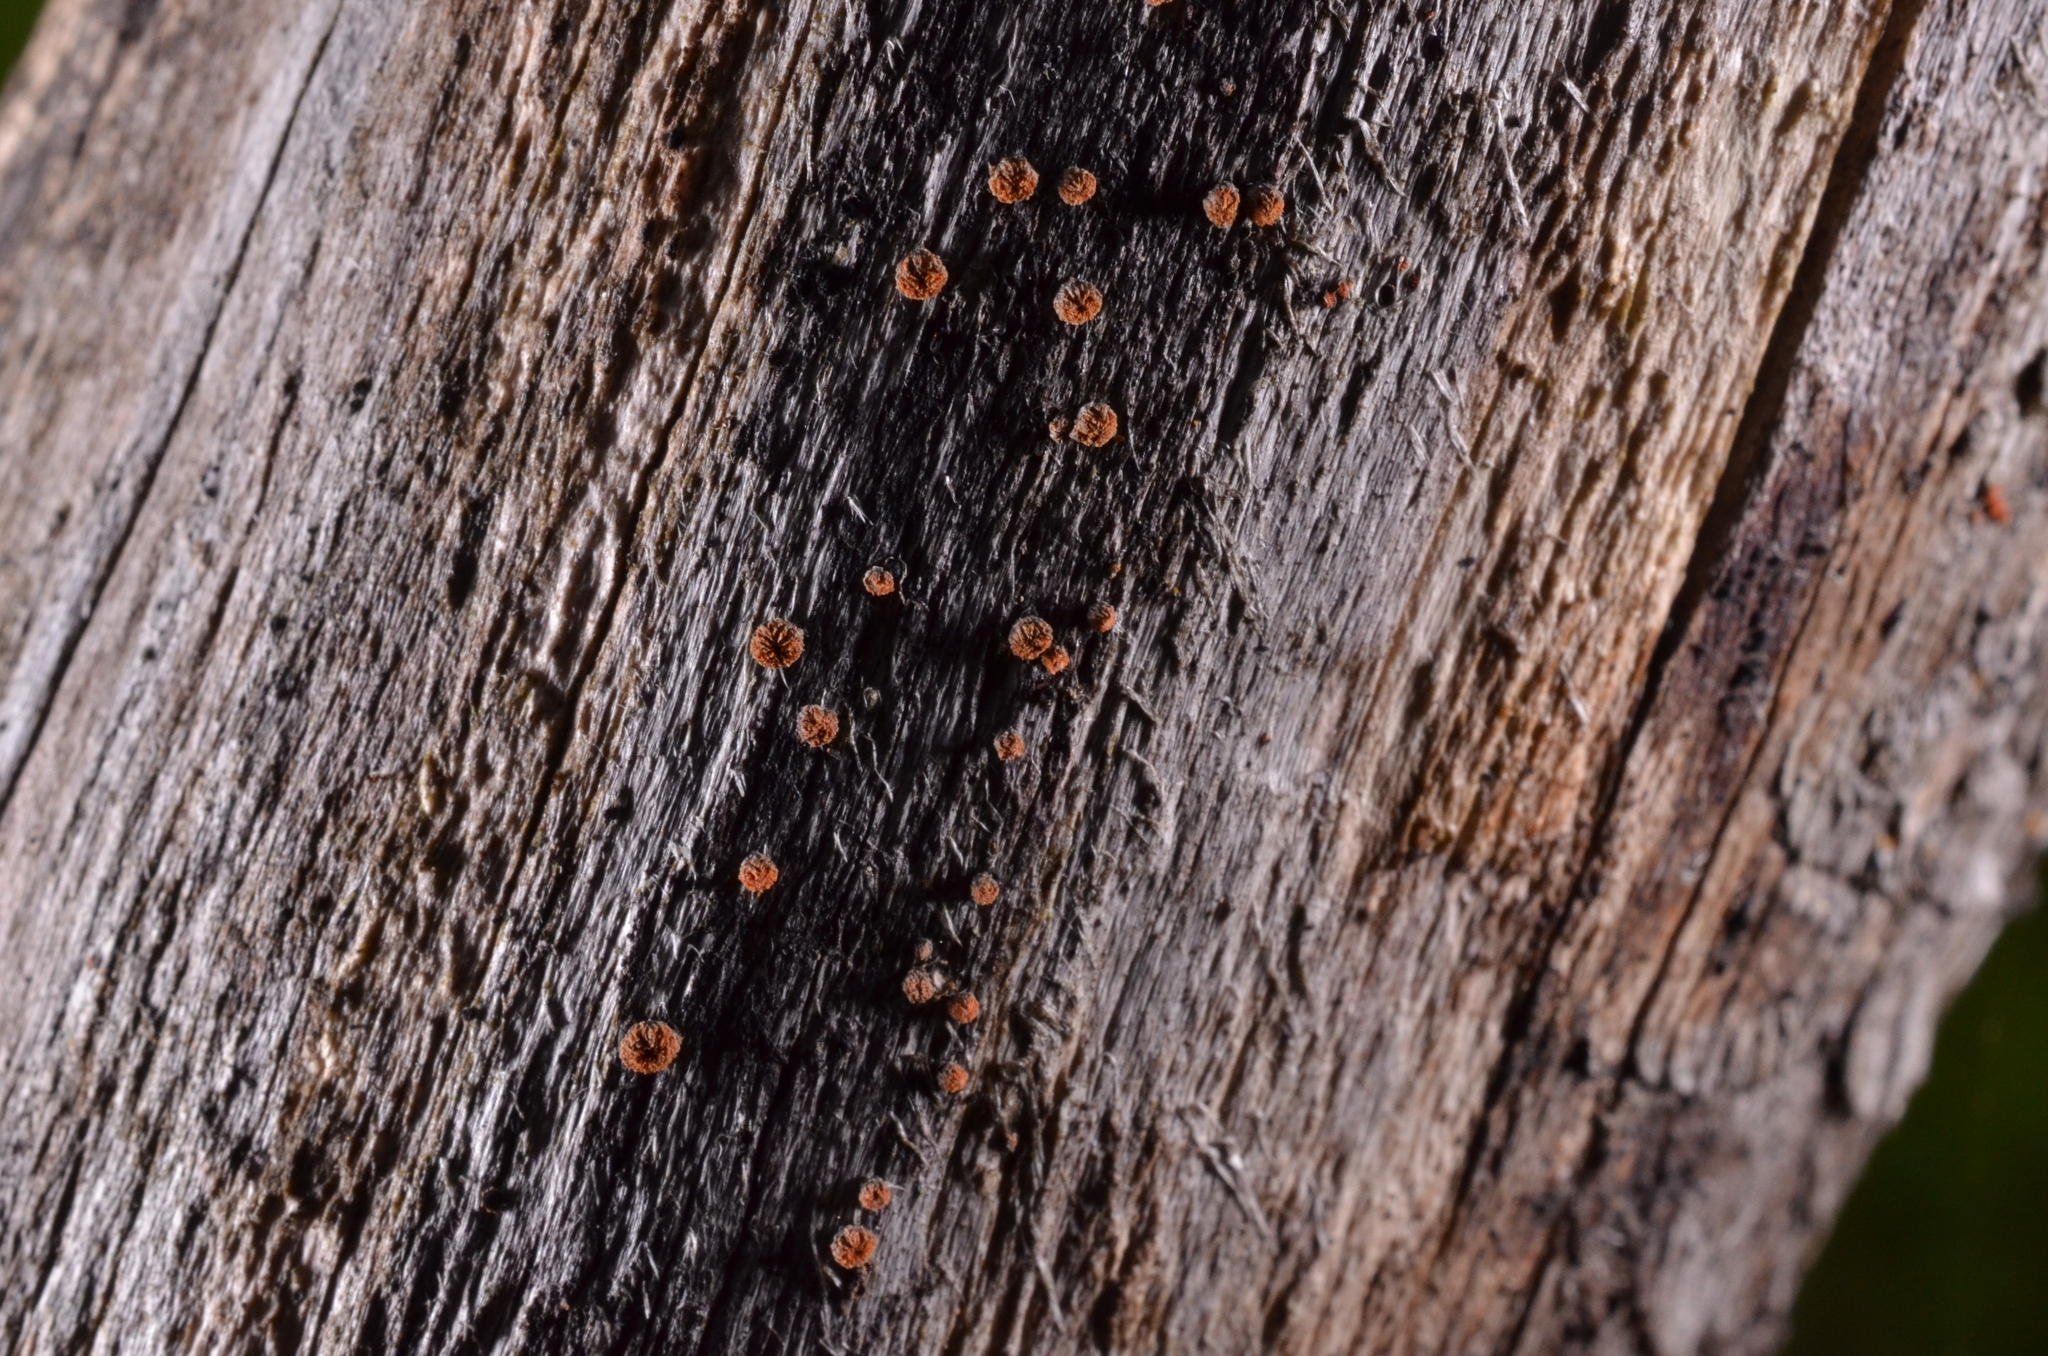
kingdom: Fungi
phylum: Ascomycota
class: Leotiomycetes
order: Helotiales
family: Lachnaceae
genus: Perrotia
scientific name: Perrotia flammea
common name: Wood spark
